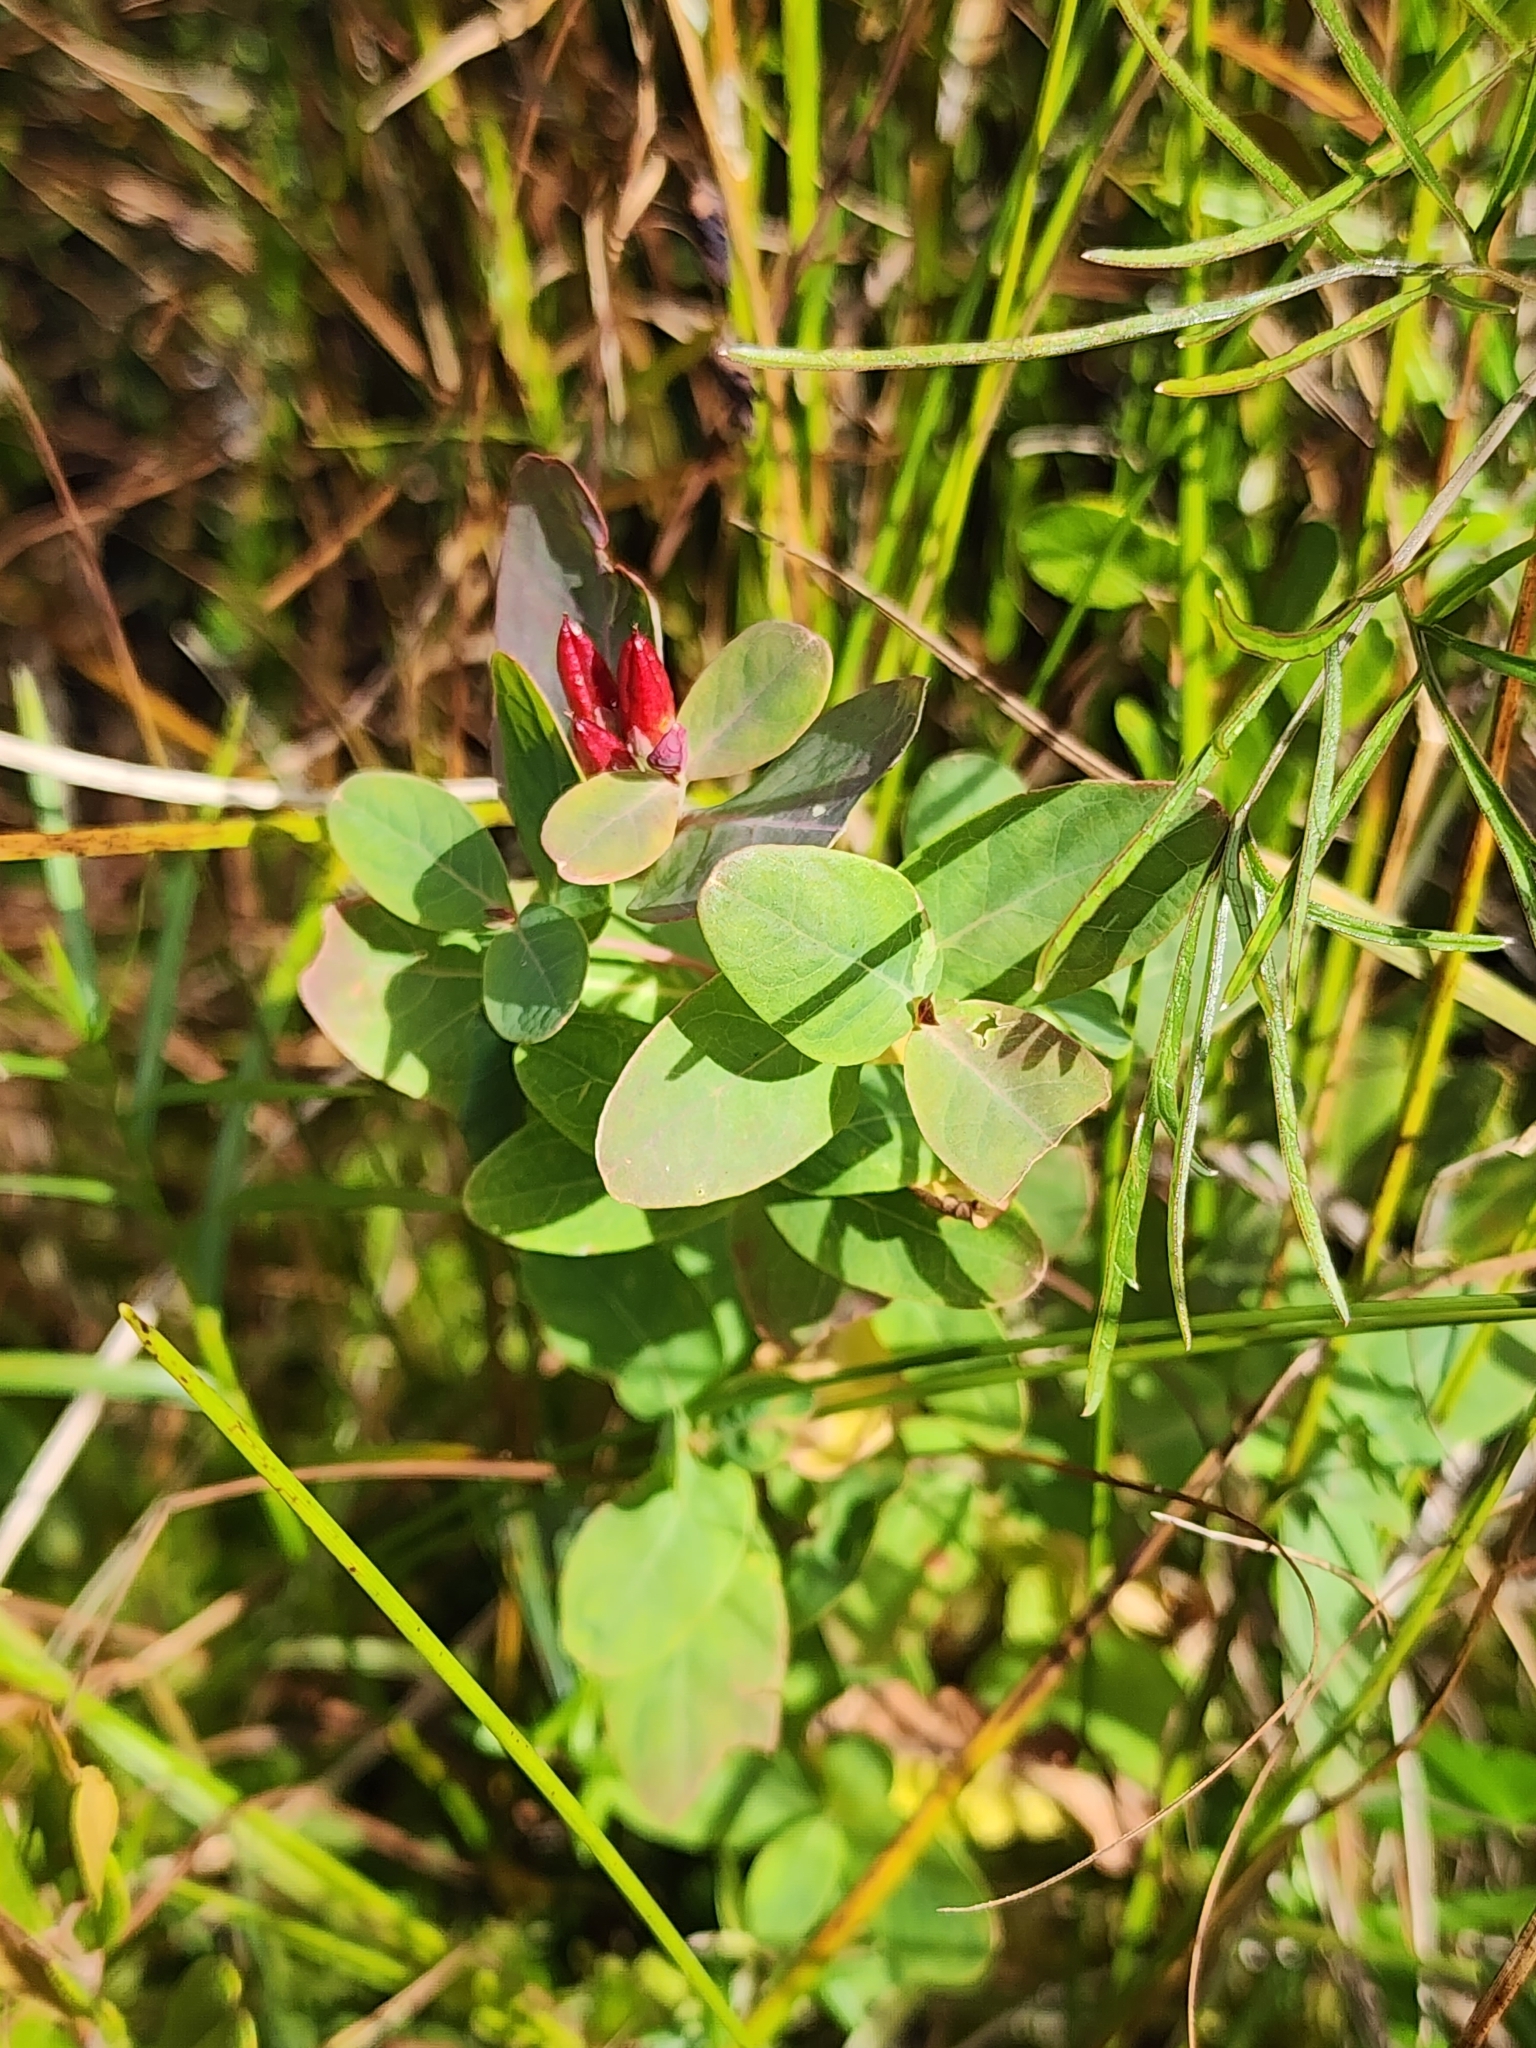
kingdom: Plantae
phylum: Tracheophyta
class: Magnoliopsida
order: Malpighiales
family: Hypericaceae
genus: Triadenum
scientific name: Triadenum fraseri
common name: Fraser's marsh st. johnswort
